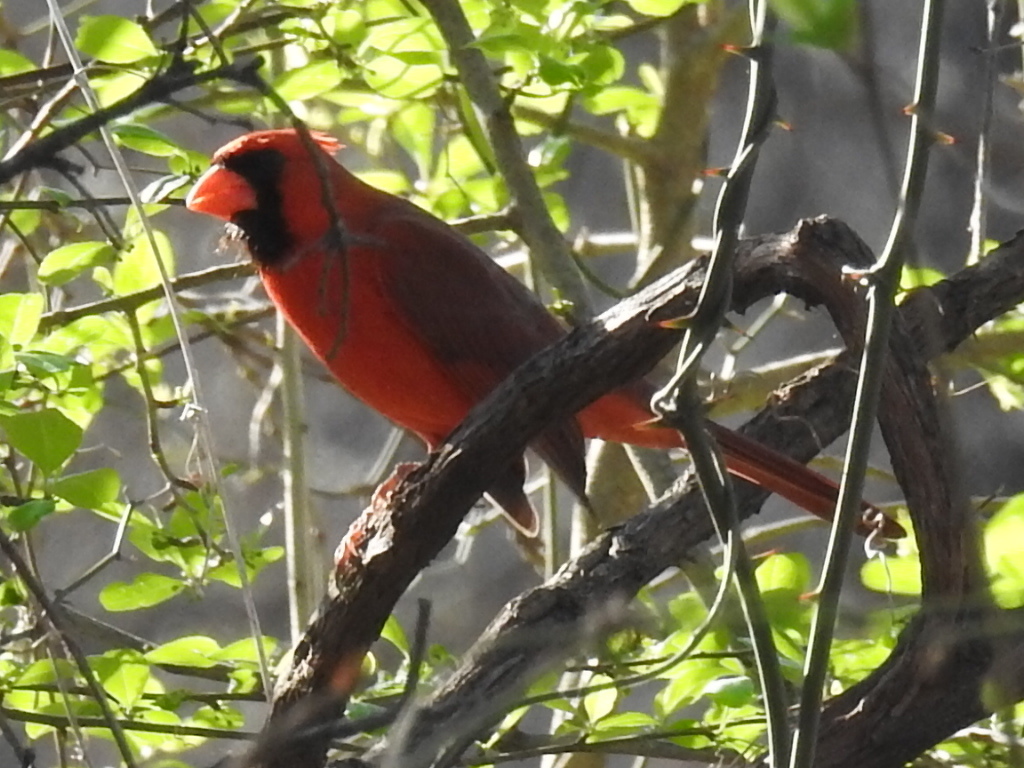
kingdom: Animalia
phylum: Chordata
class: Aves
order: Passeriformes
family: Cardinalidae
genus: Cardinalis
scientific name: Cardinalis cardinalis
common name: Northern cardinal
